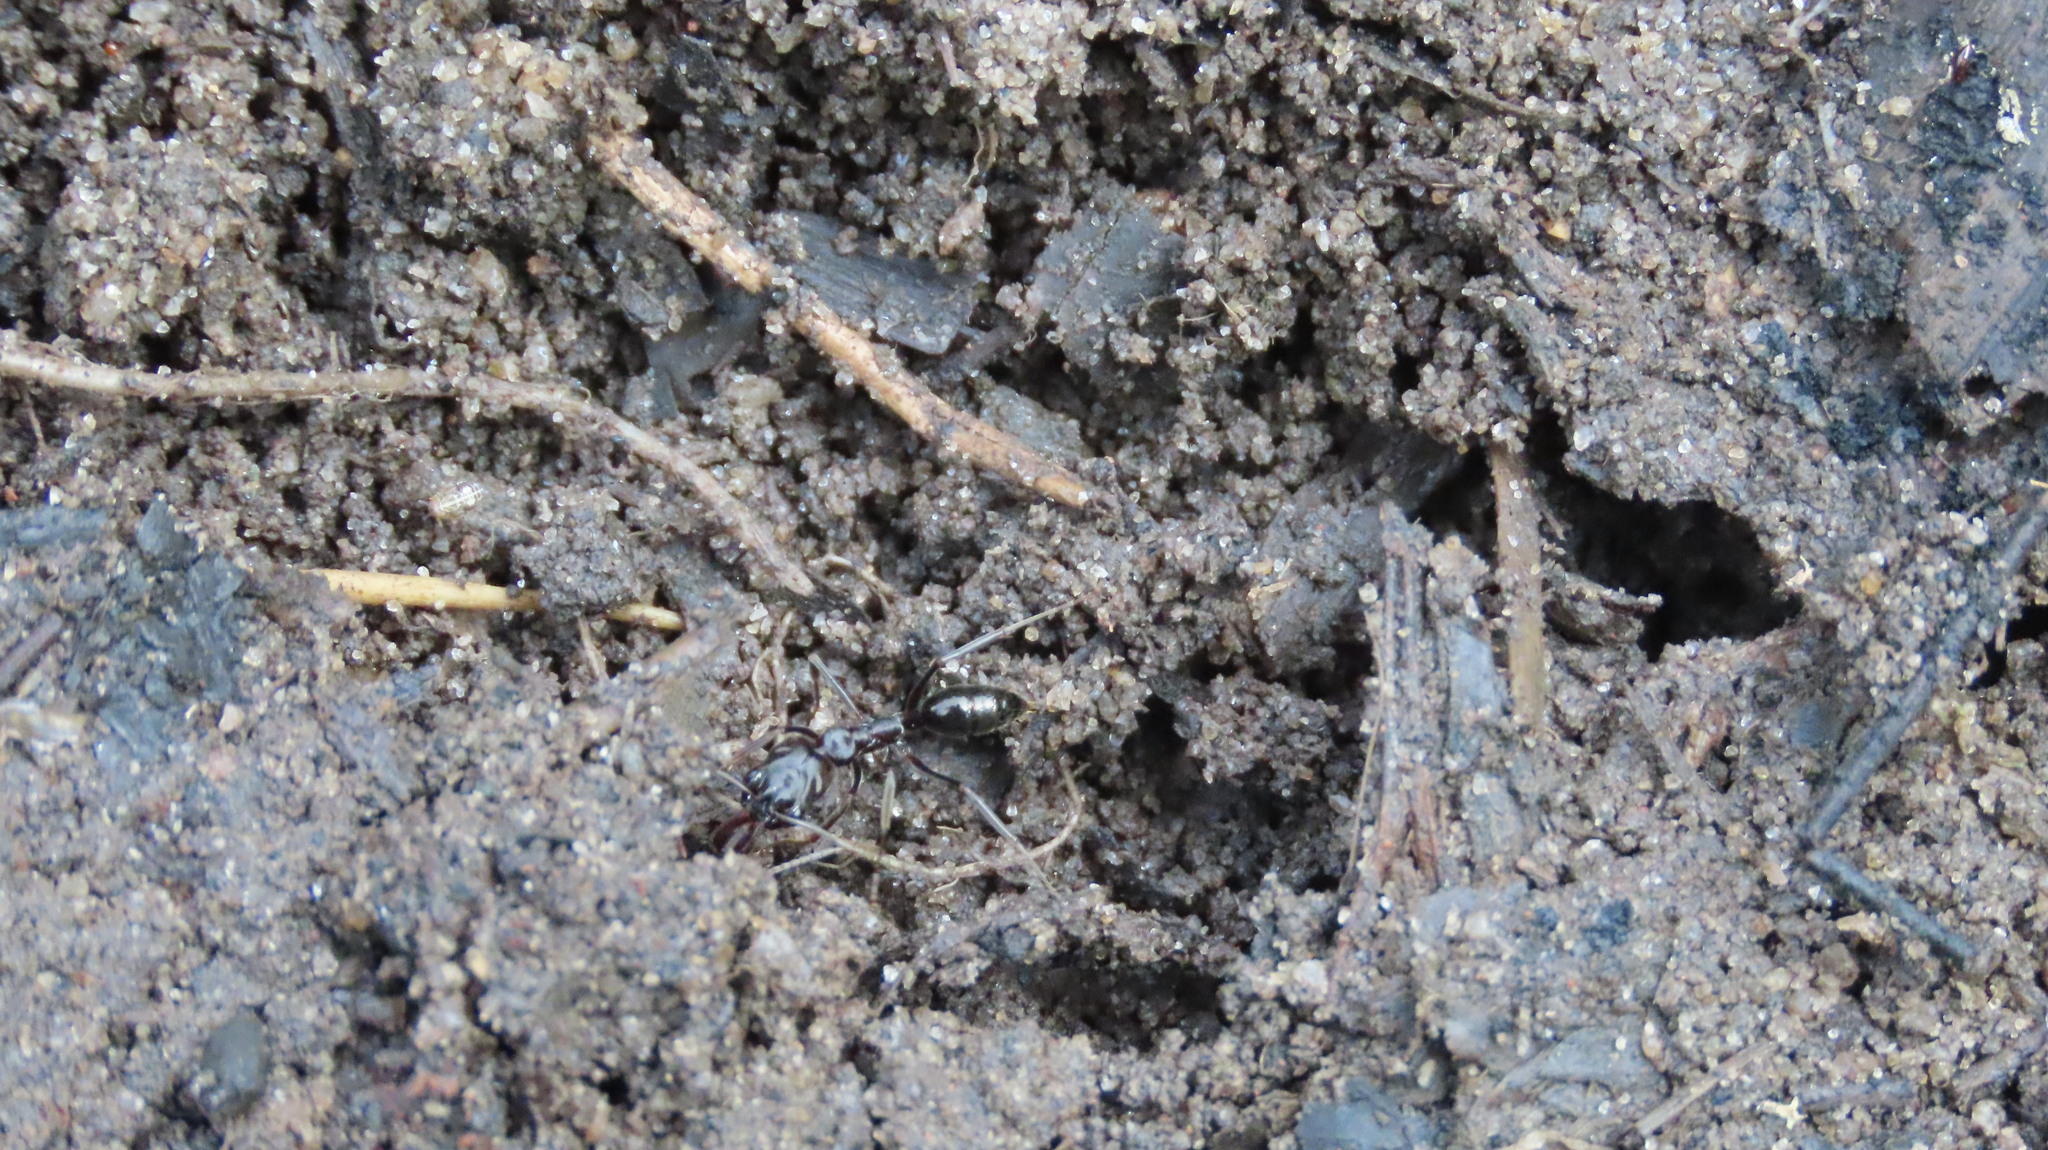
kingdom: Animalia
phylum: Arthropoda
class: Insecta
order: Hymenoptera
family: Formicidae
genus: Odontomachus
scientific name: Odontomachus simillimus
